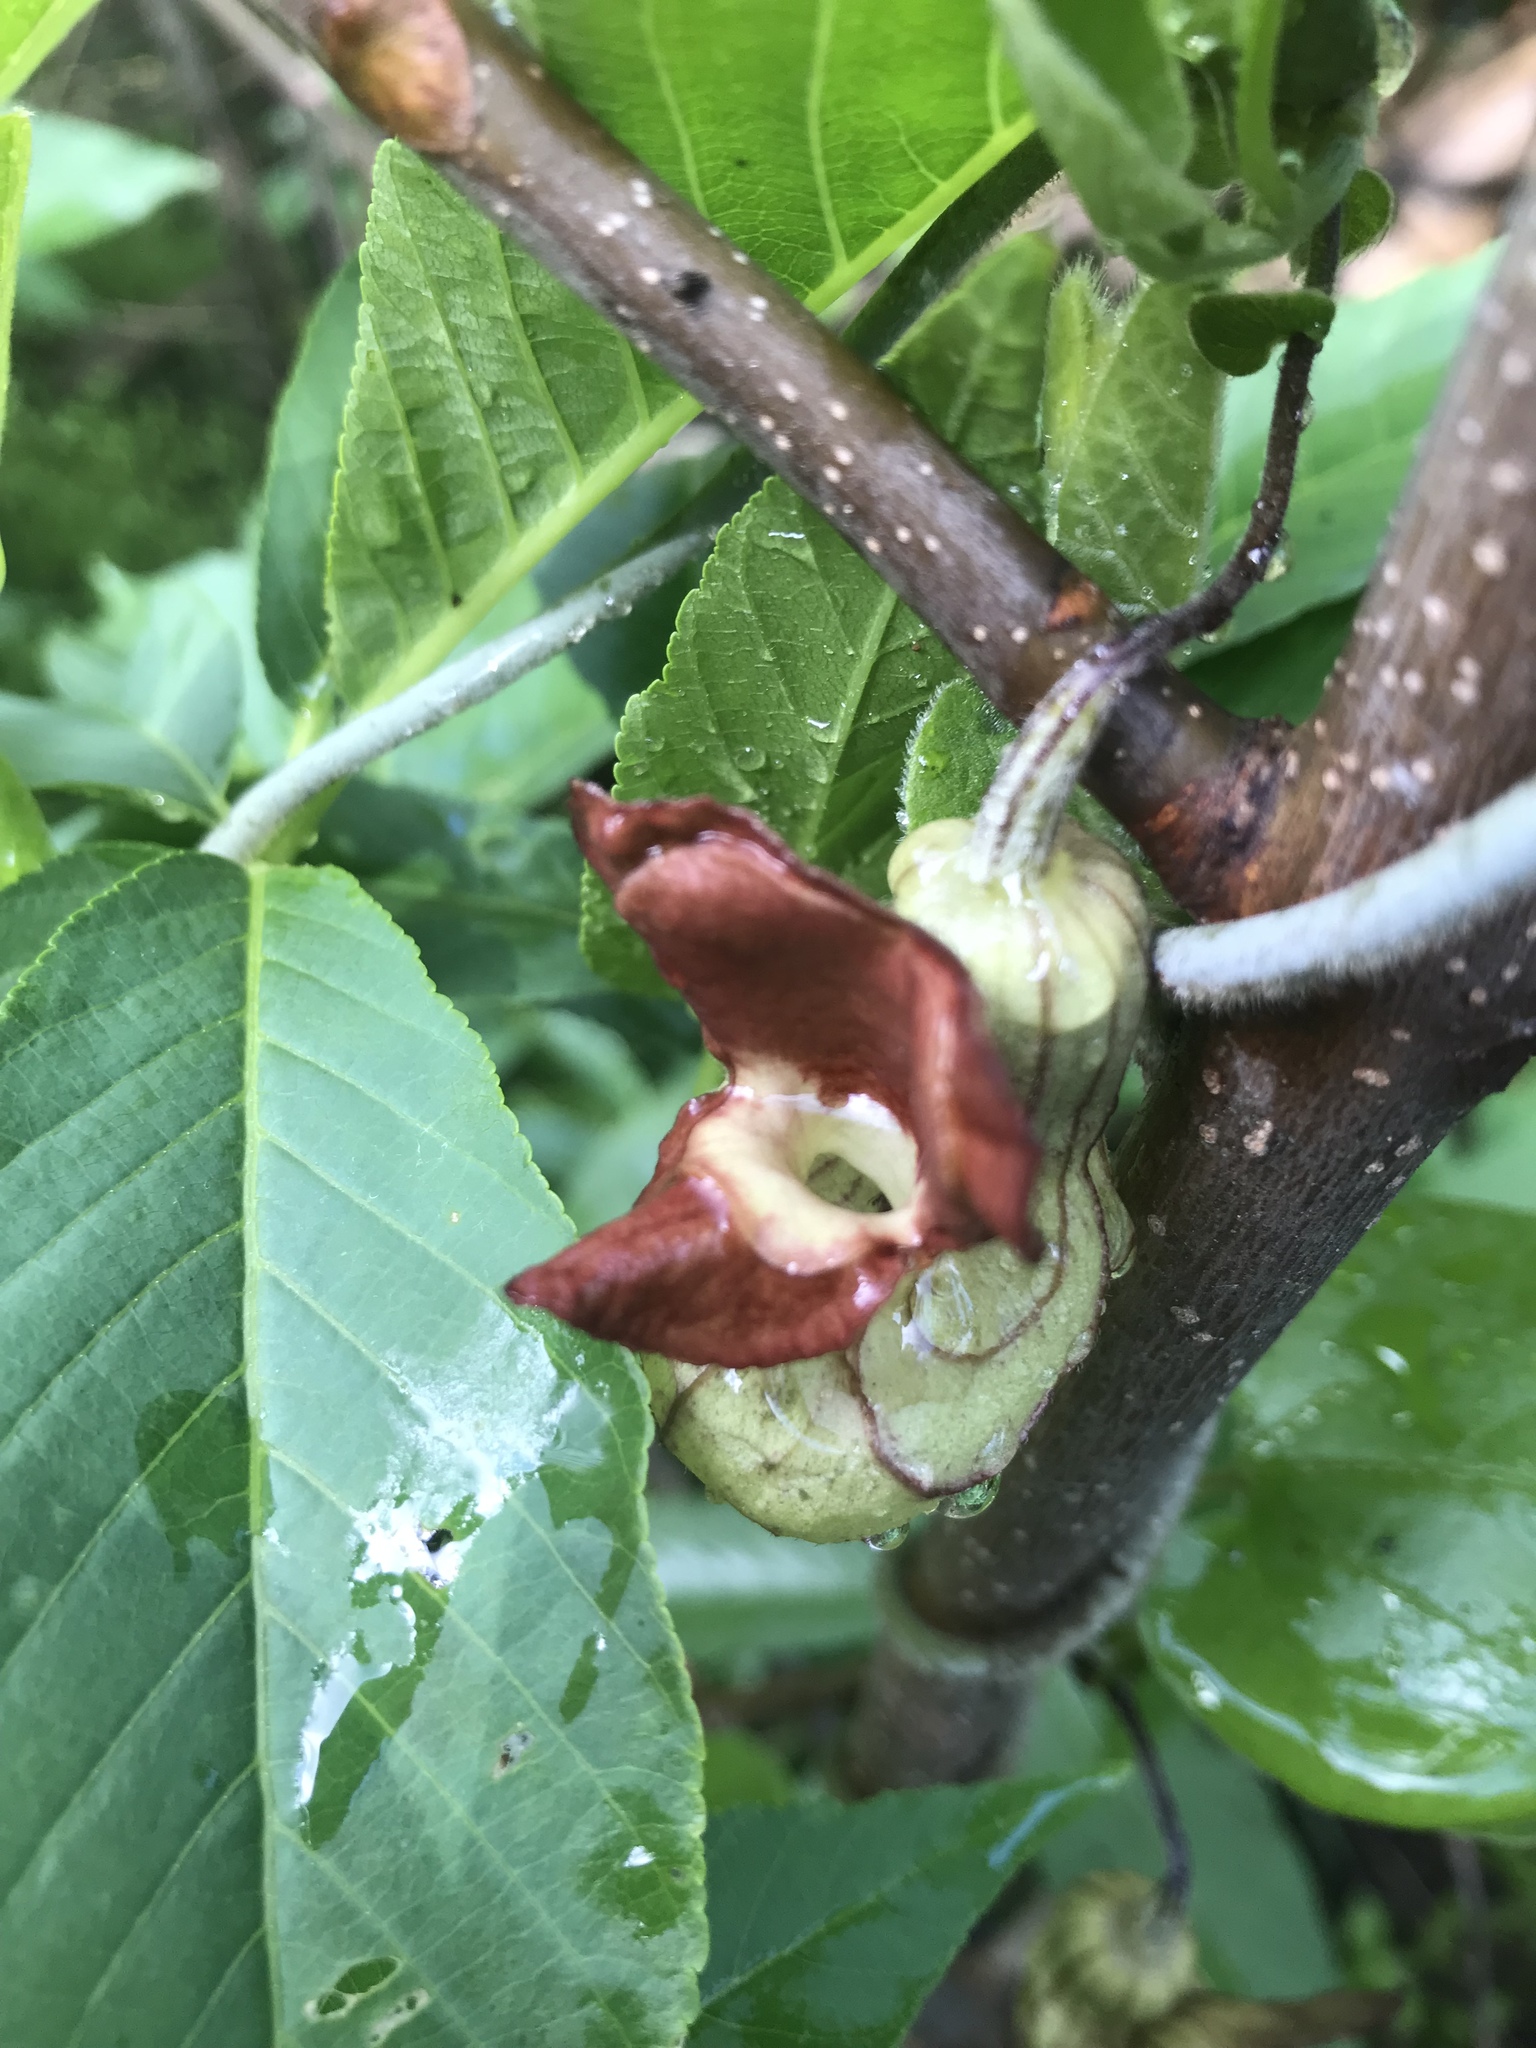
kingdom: Plantae
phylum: Tracheophyta
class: Magnoliopsida
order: Piperales
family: Aristolochiaceae
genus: Isotrema
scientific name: Isotrema californicum
